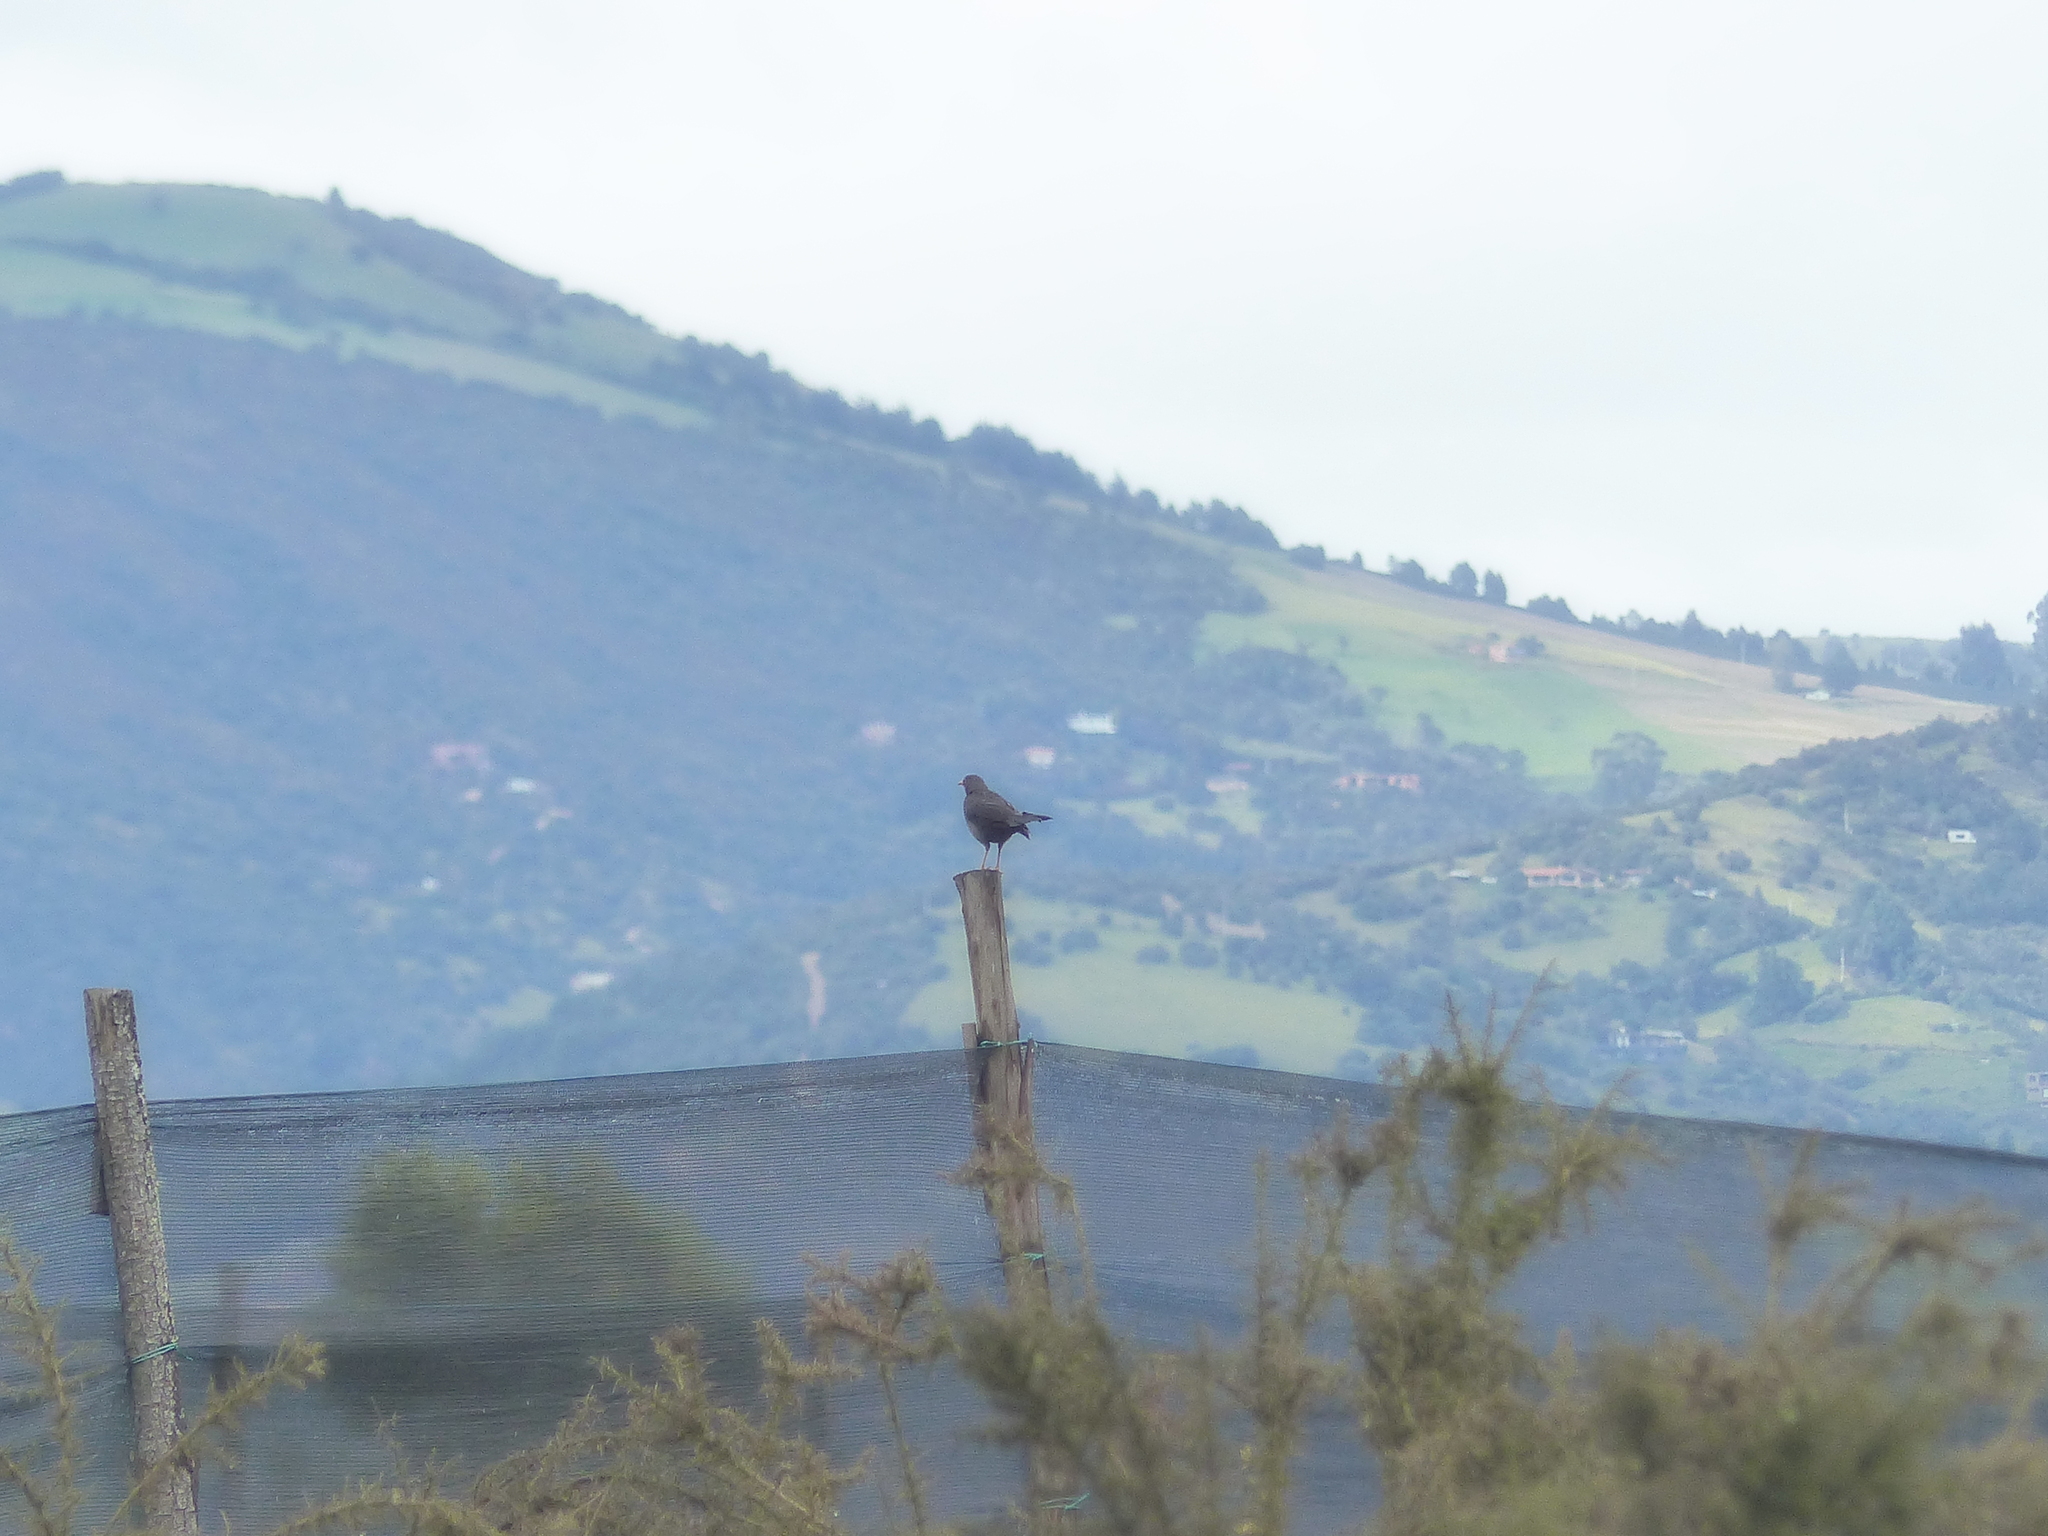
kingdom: Animalia
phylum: Chordata
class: Aves
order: Passeriformes
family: Turdidae
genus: Turdus
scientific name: Turdus fuscater
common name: Great thrush
